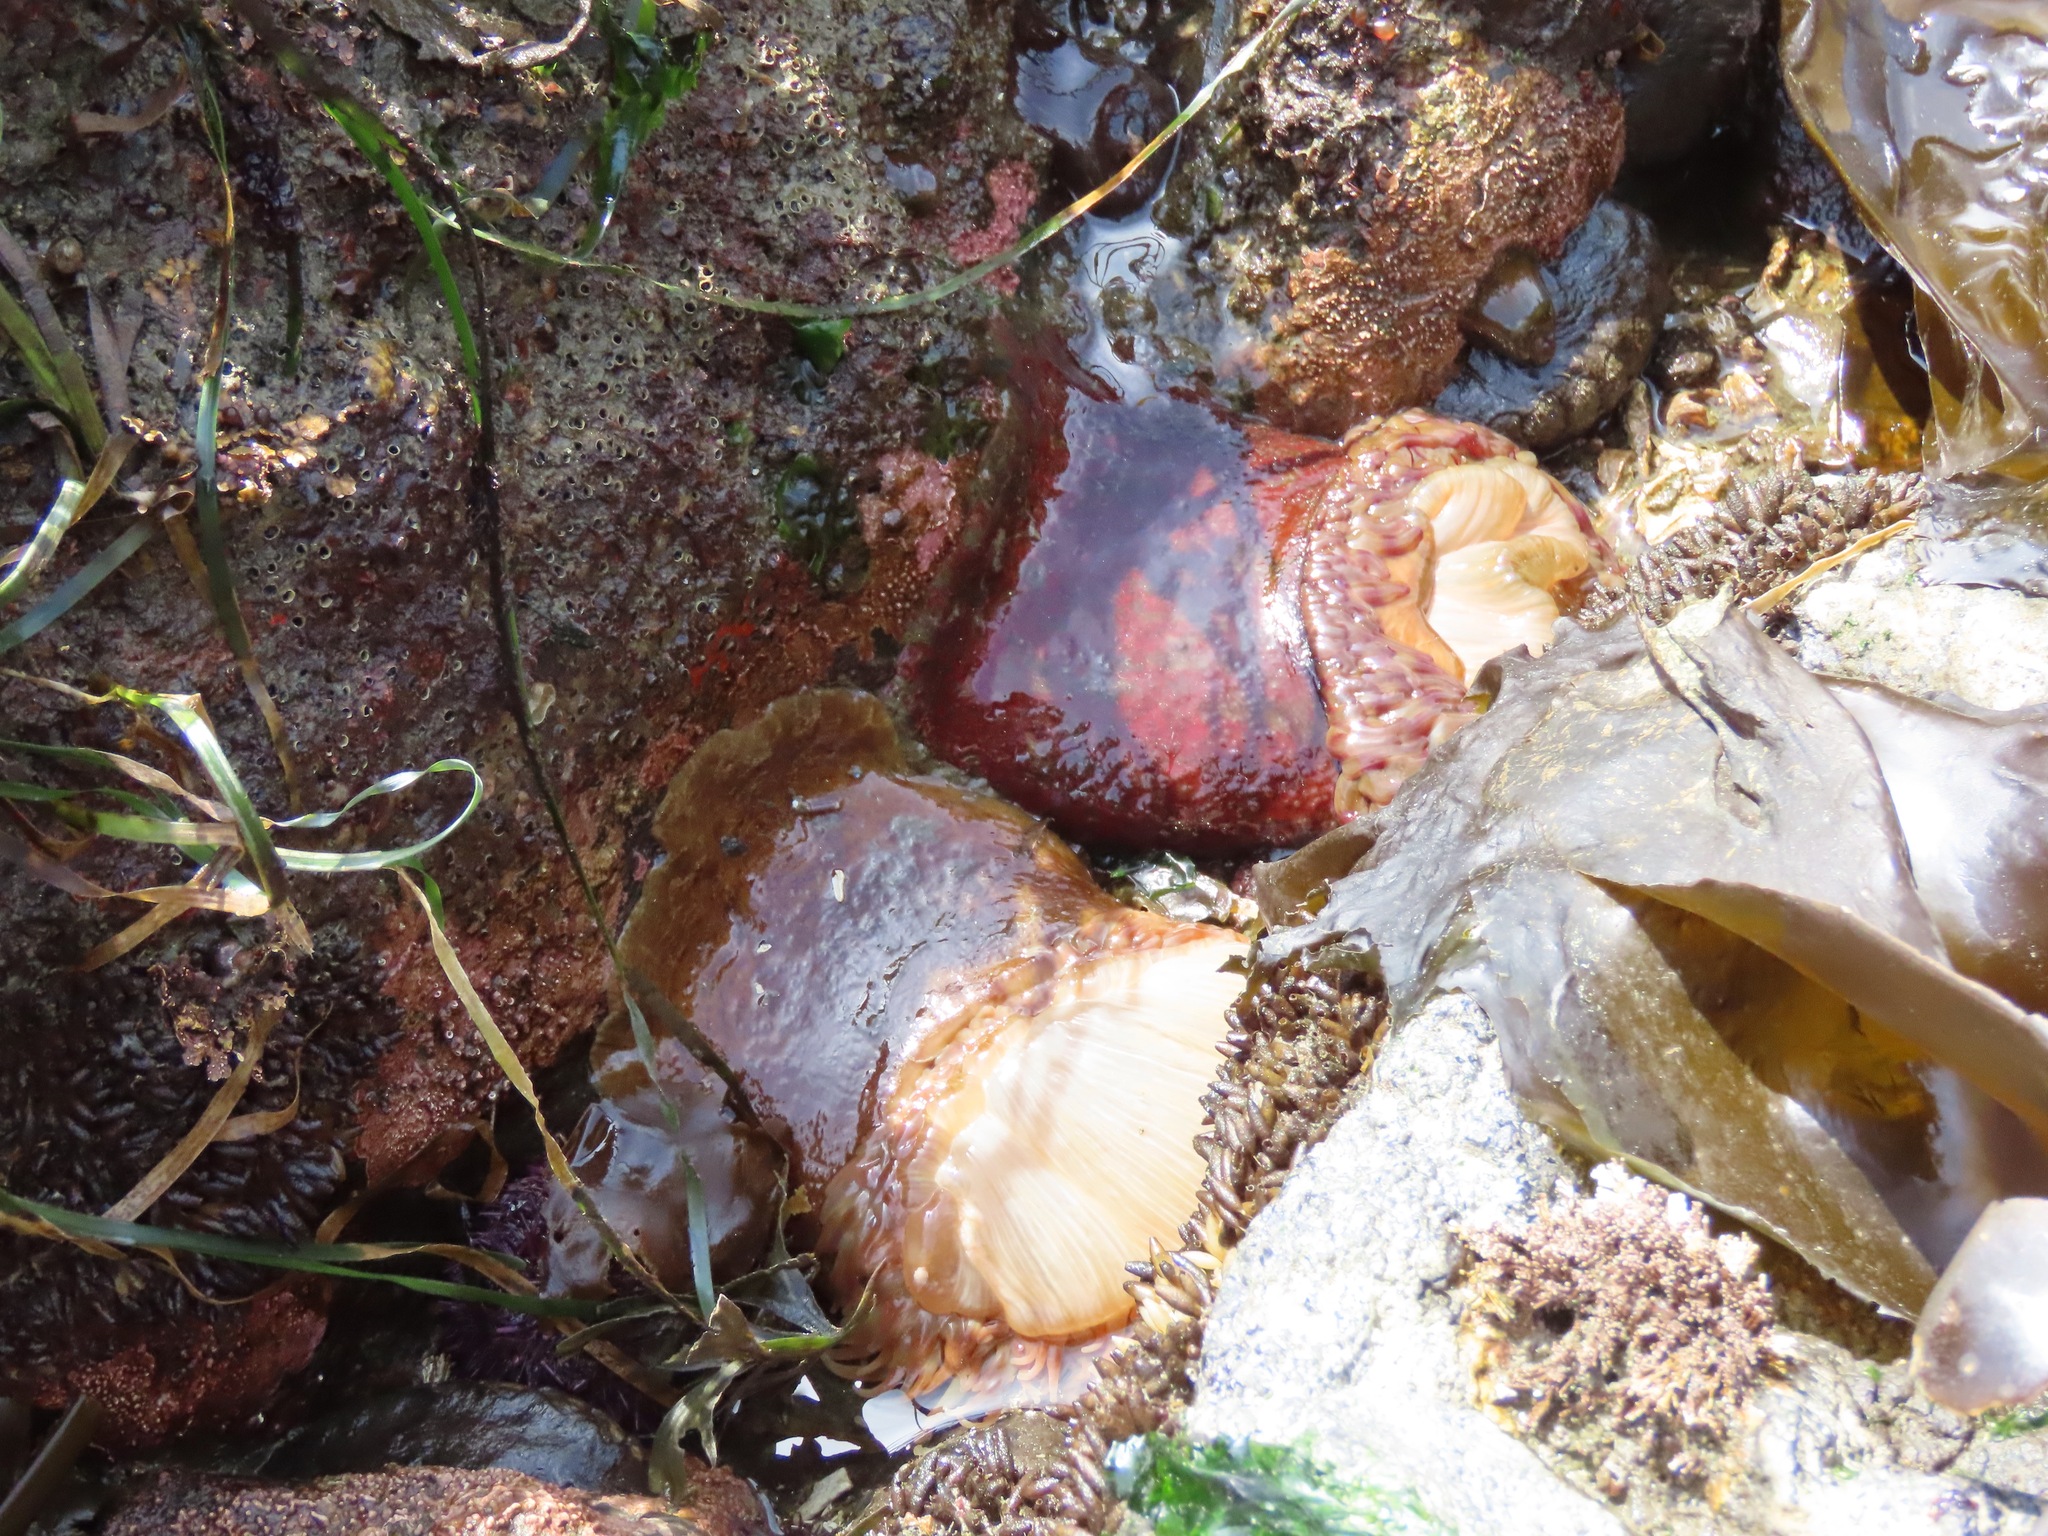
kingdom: Animalia
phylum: Cnidaria
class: Anthozoa
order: Actiniaria
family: Actiniidae
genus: Urticina
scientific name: Urticina grebelnyi
